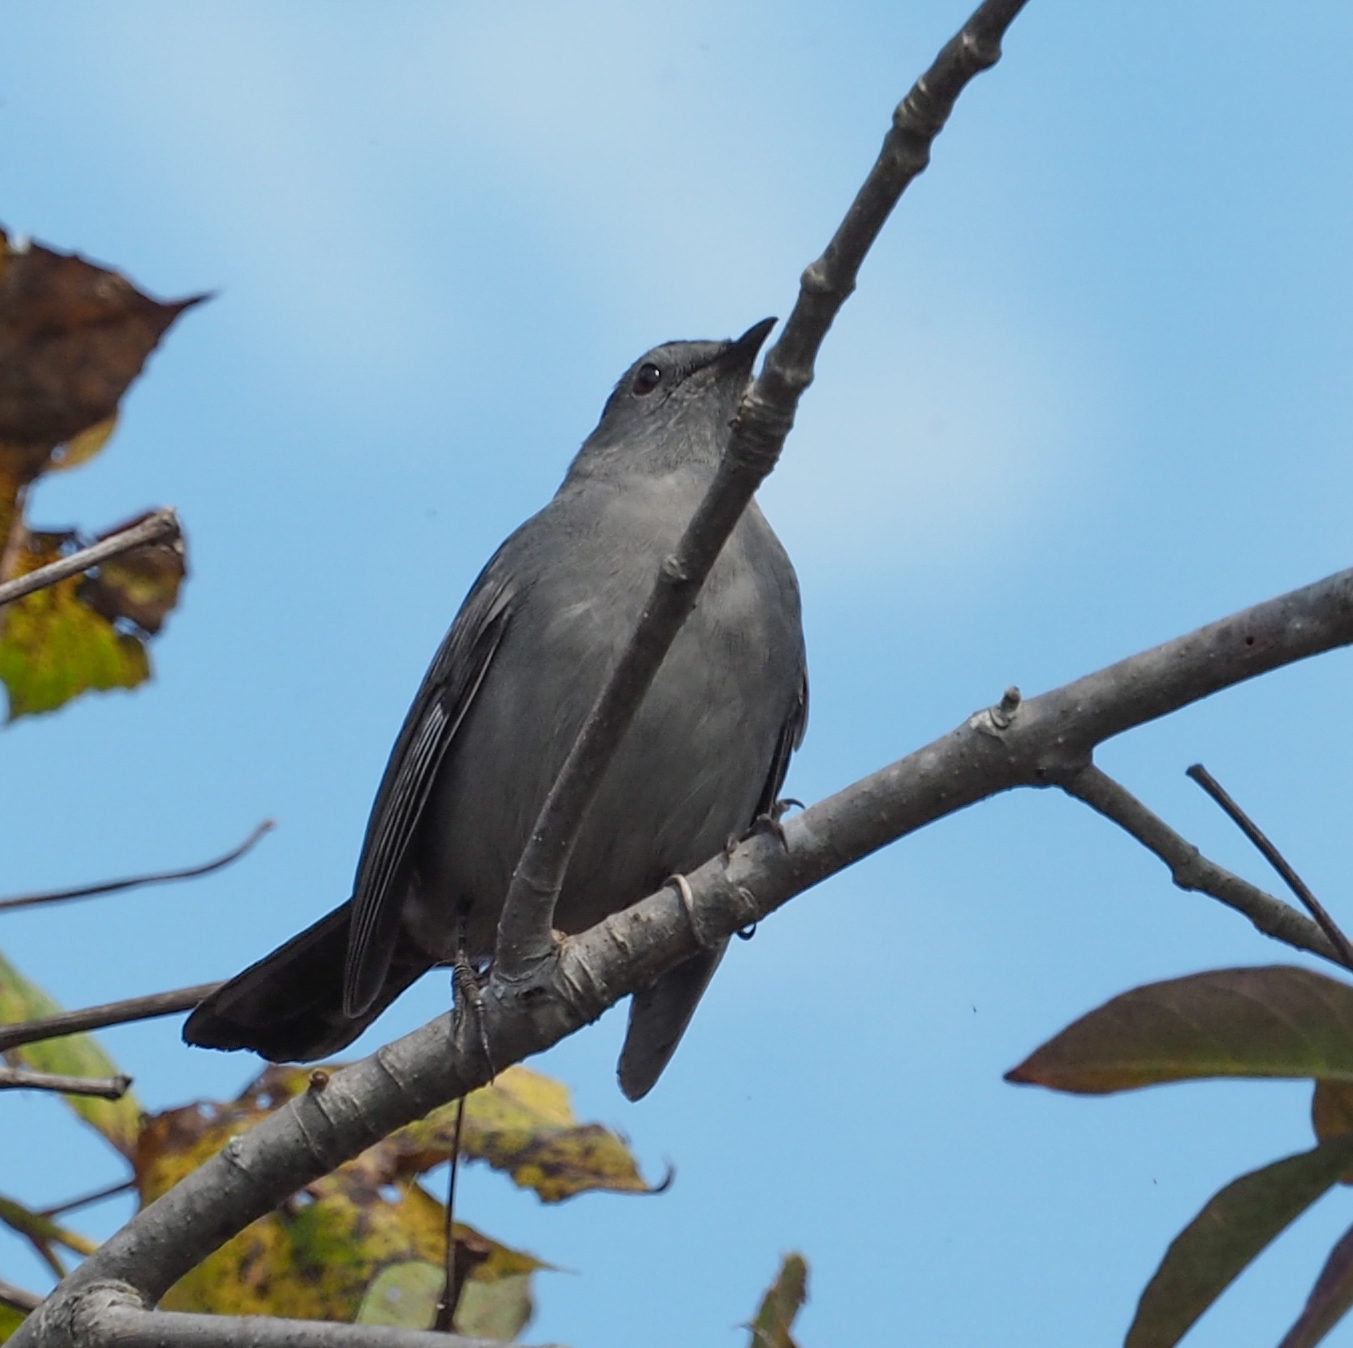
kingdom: Animalia
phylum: Chordata
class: Aves
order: Passeriformes
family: Mimidae
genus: Dumetella
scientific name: Dumetella carolinensis
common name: Gray catbird
